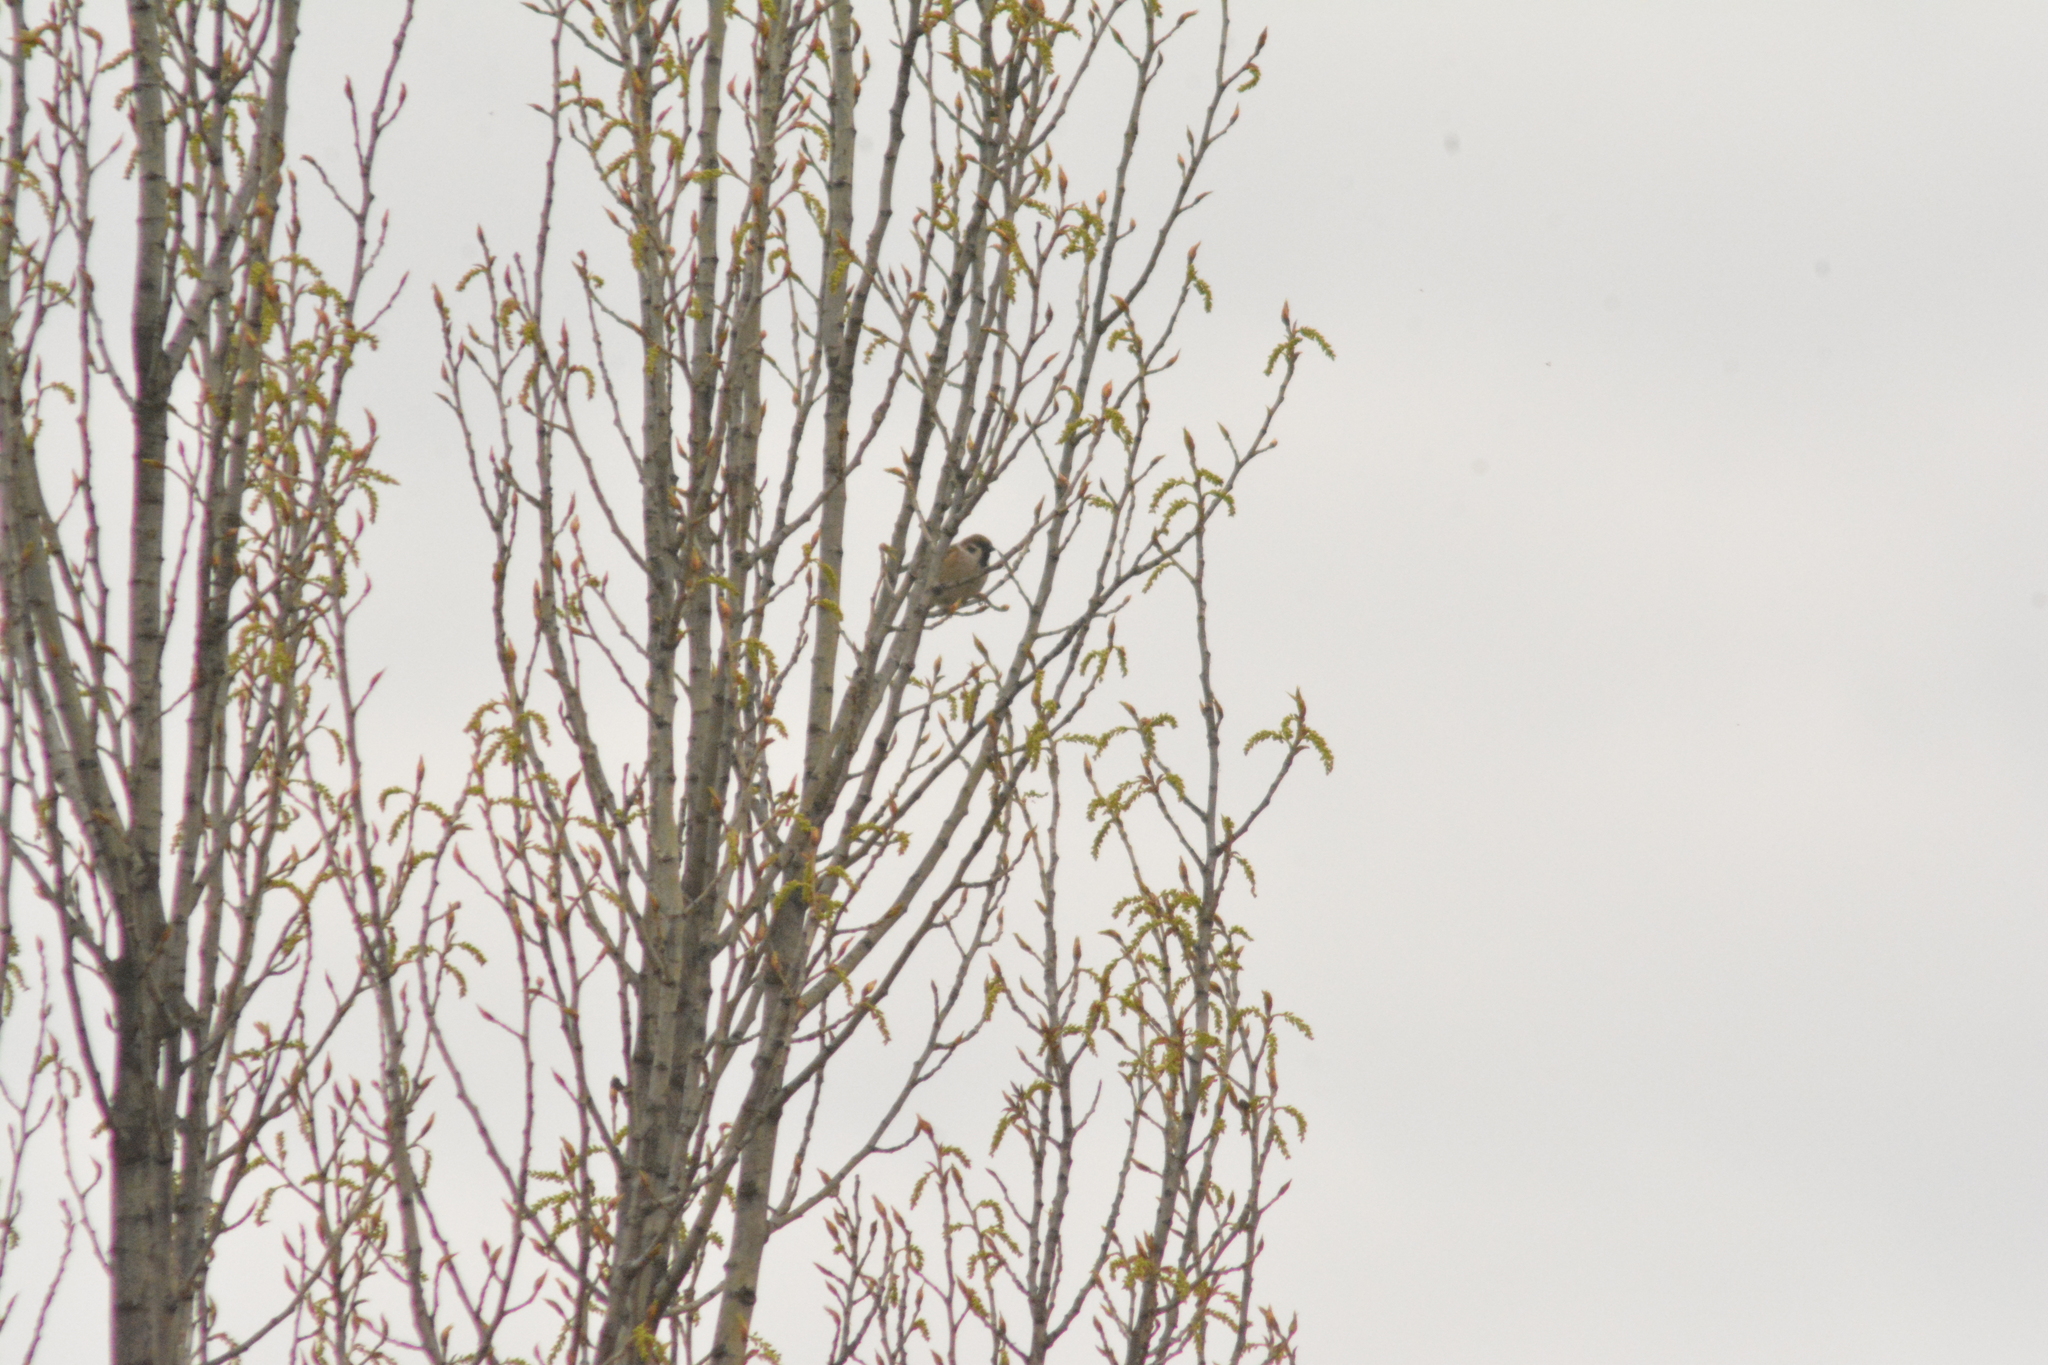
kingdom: Animalia
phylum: Chordata
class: Aves
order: Passeriformes
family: Passeridae
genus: Passer
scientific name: Passer montanus
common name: Eurasian tree sparrow
